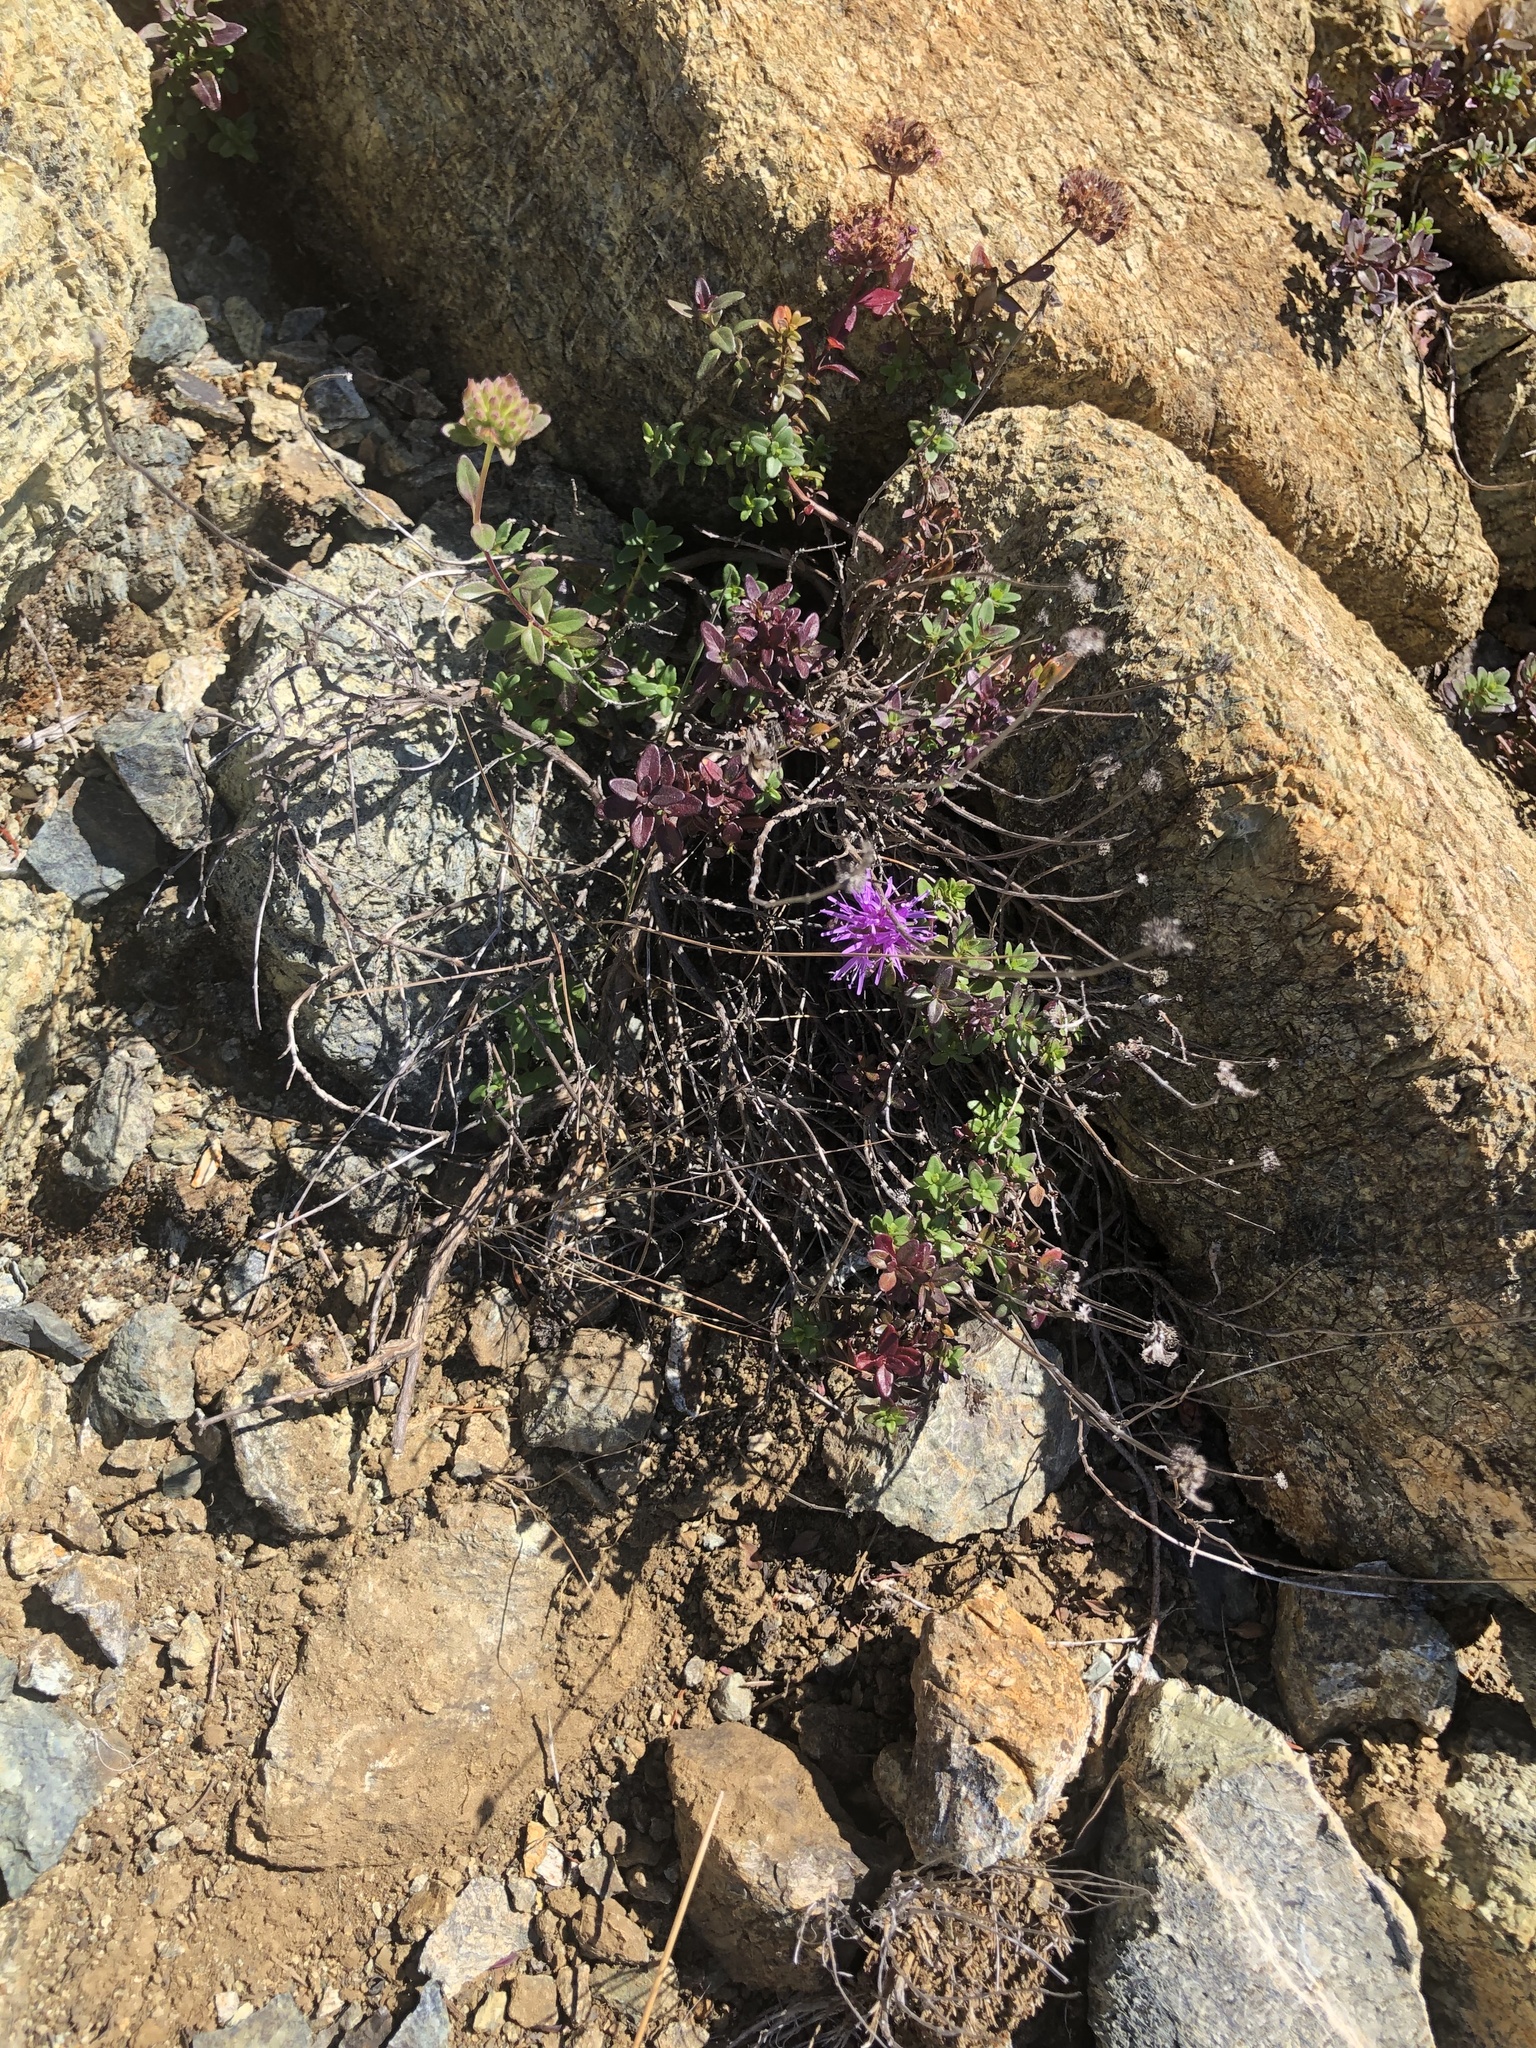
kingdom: Plantae
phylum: Tracheophyta
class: Magnoliopsida
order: Lamiales
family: Lamiaceae
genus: Monardella
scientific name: Monardella purpurea
